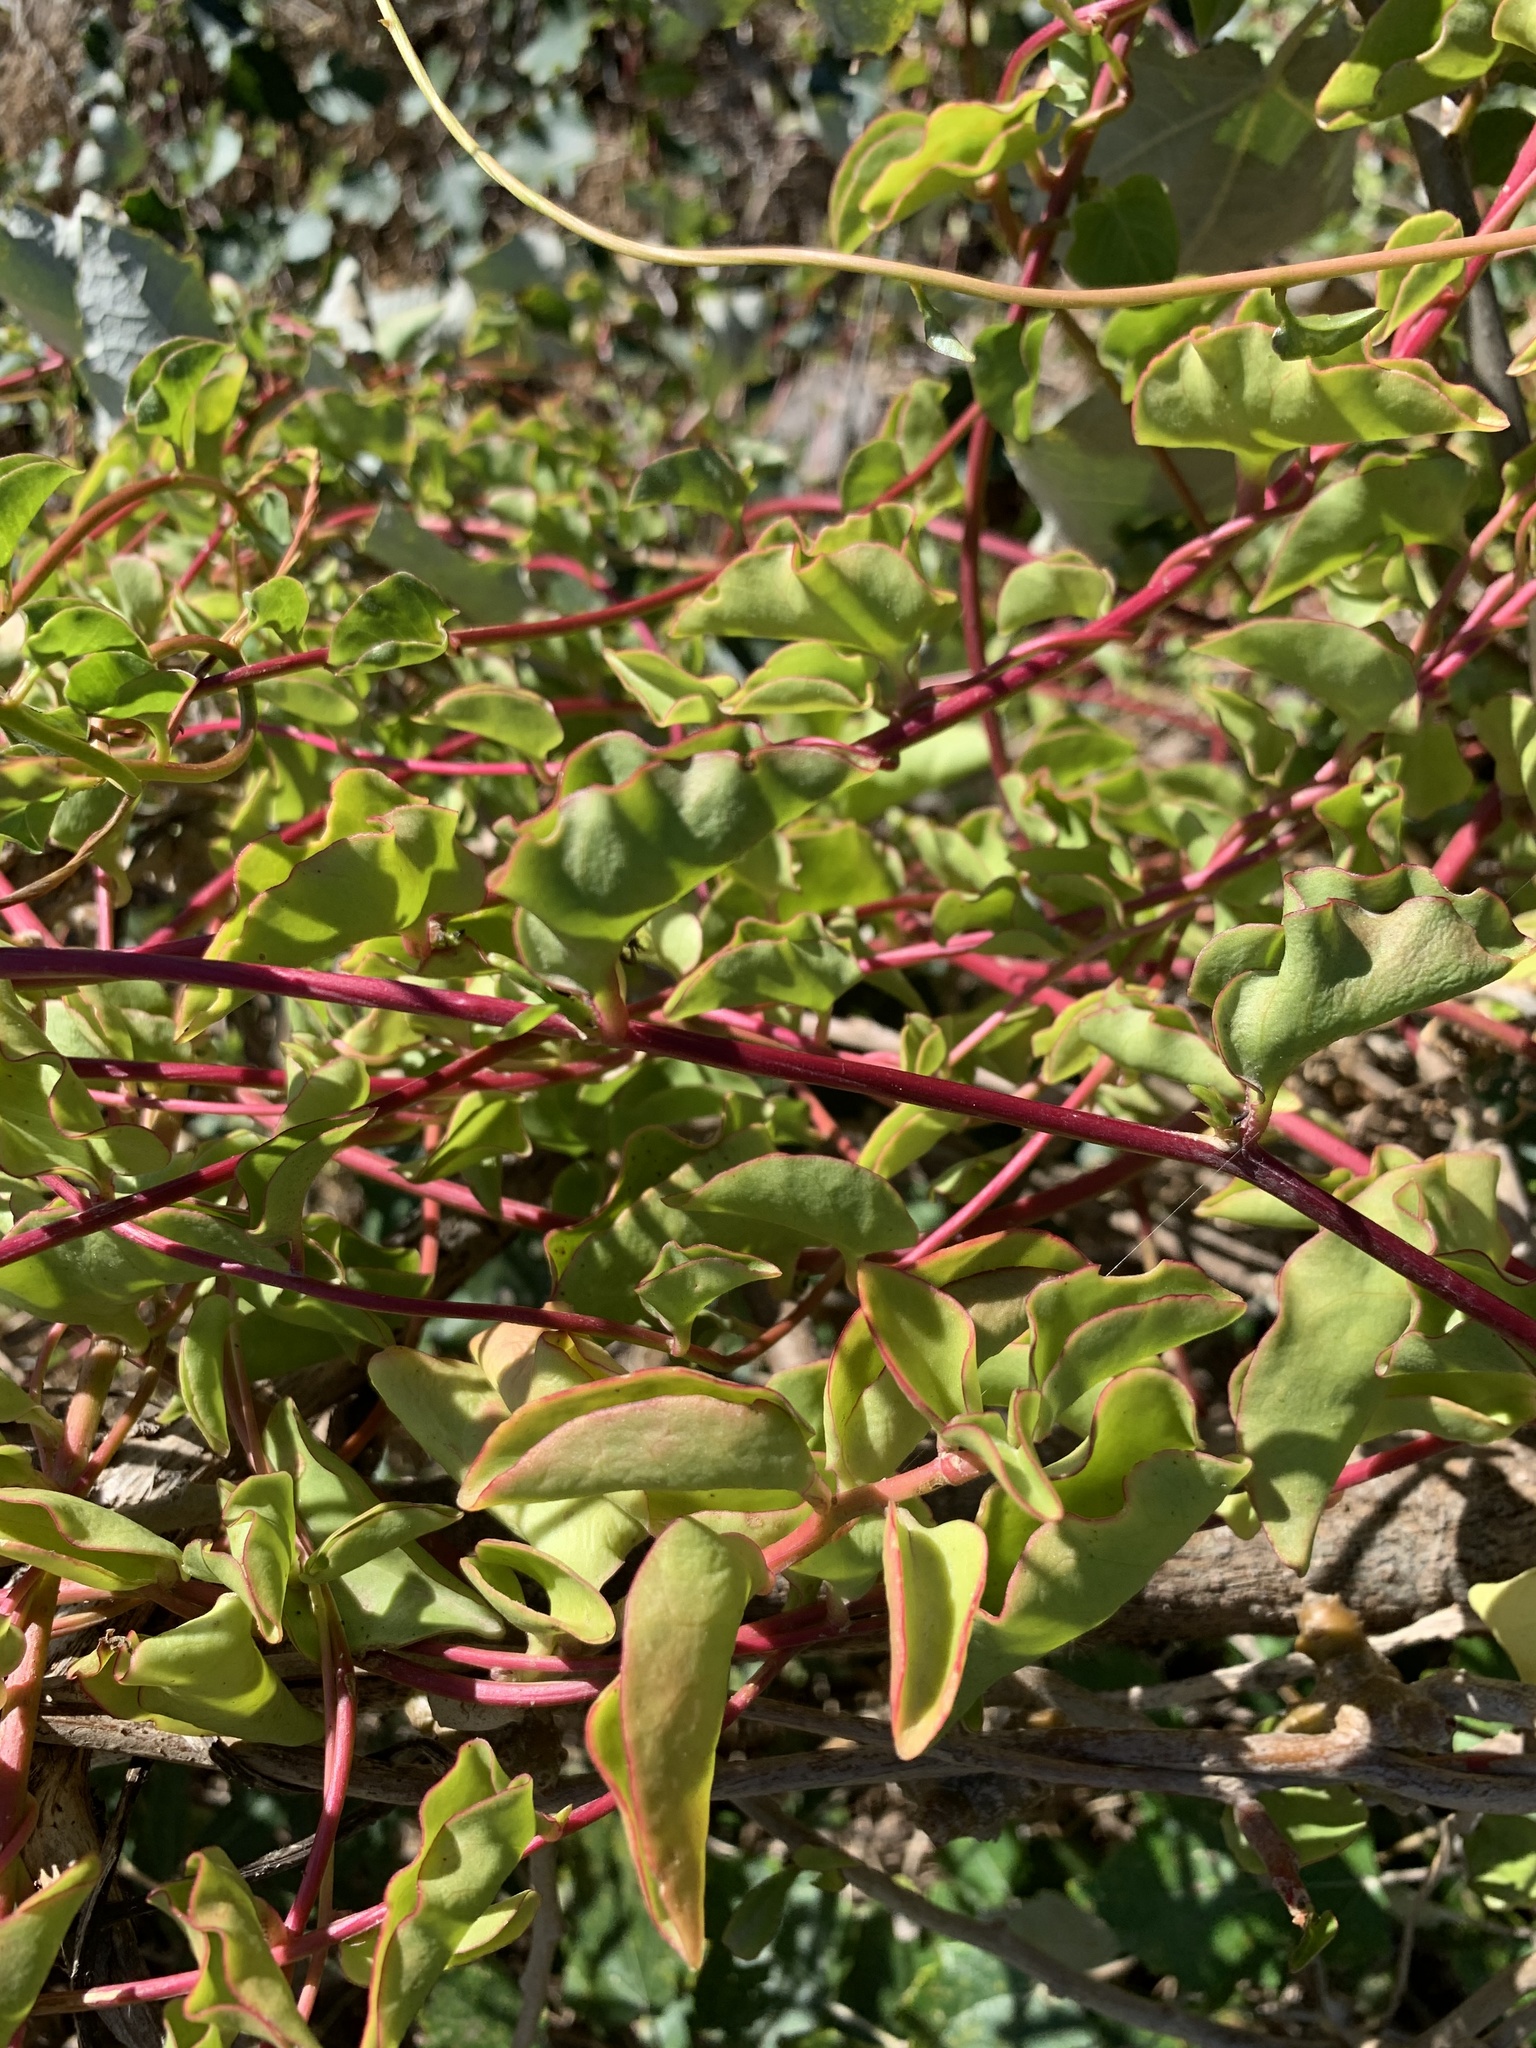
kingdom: Plantae
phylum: Tracheophyta
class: Magnoliopsida
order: Caryophyllales
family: Basellaceae
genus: Anredera
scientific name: Anredera cordifolia
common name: Heartleaf madeiravine
